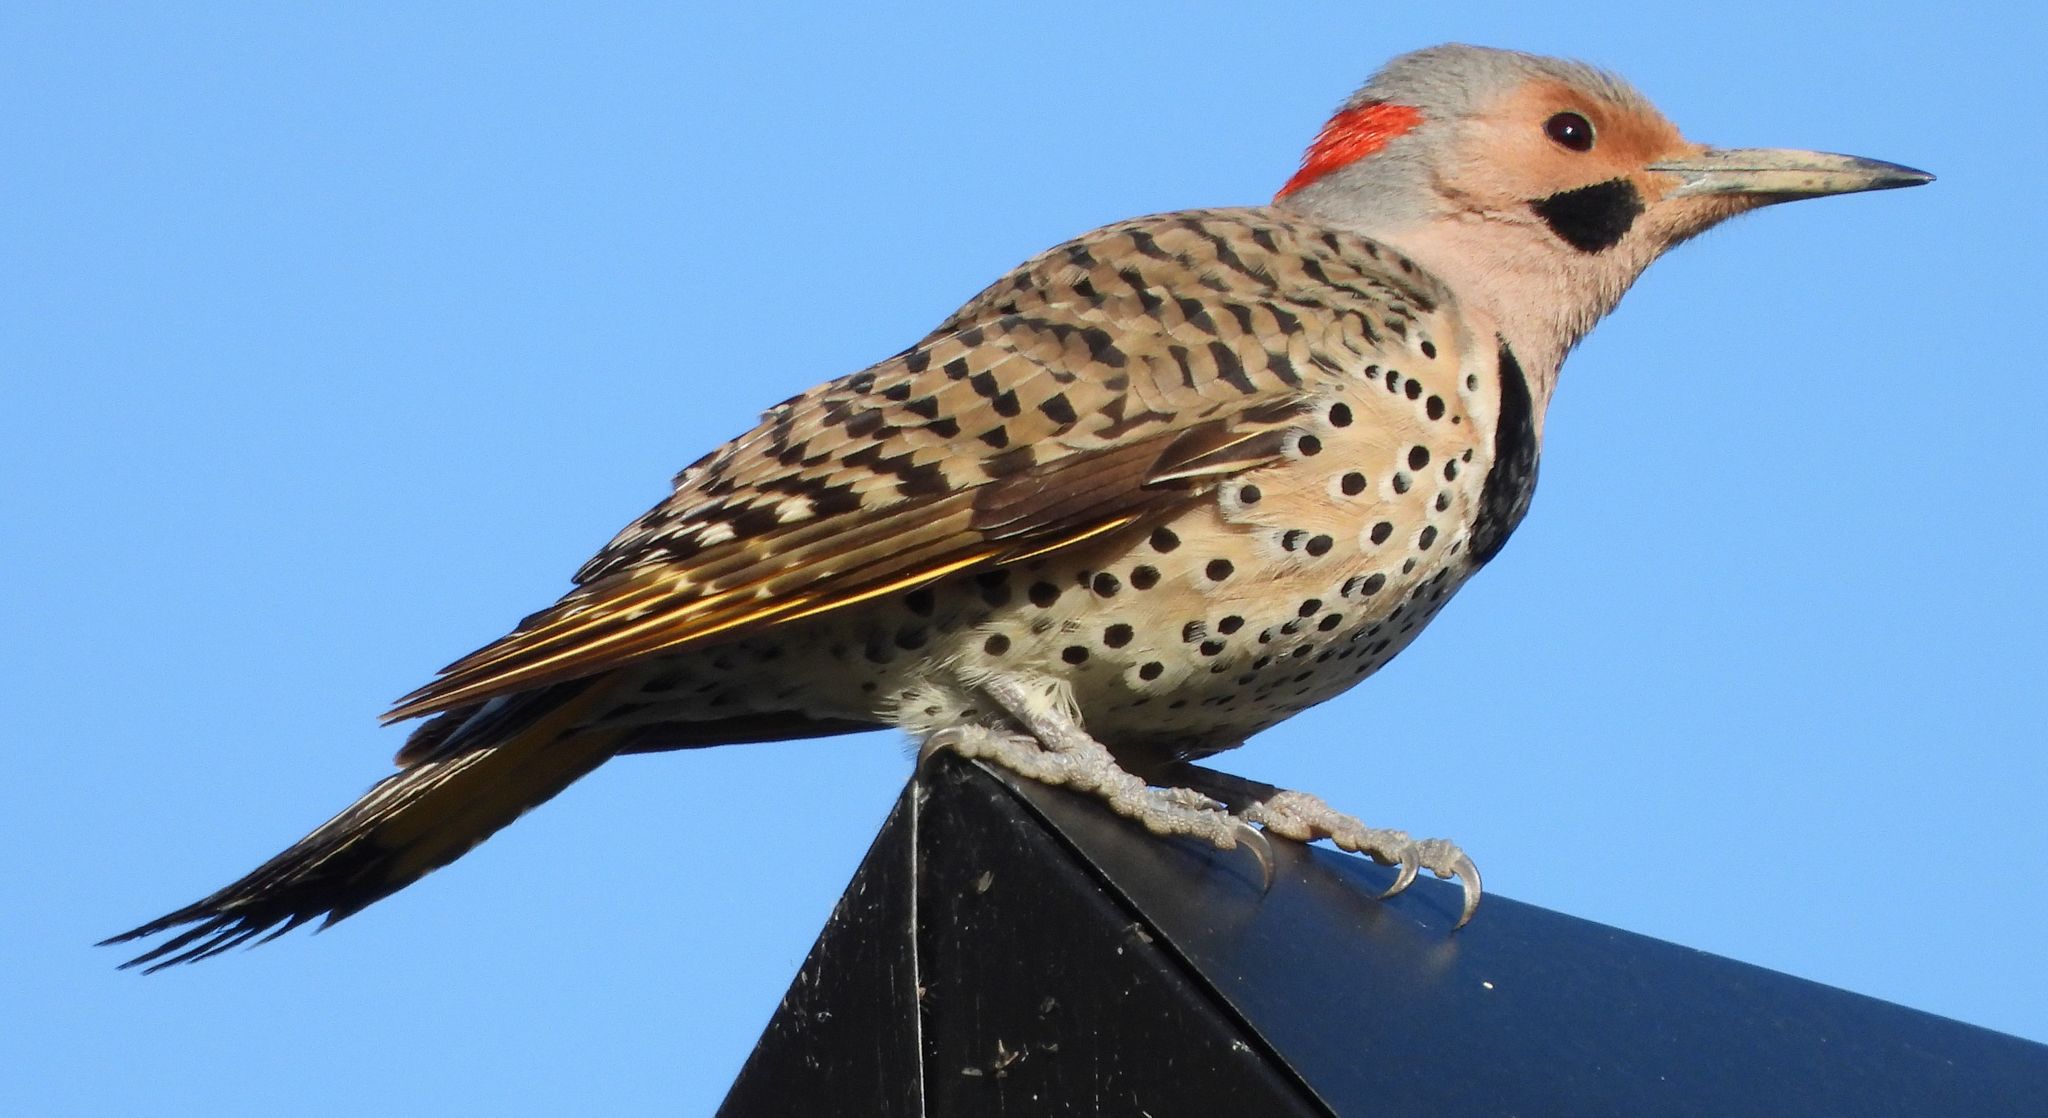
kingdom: Animalia
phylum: Chordata
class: Aves
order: Piciformes
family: Picidae
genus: Colaptes
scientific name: Colaptes auratus
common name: Northern flicker
